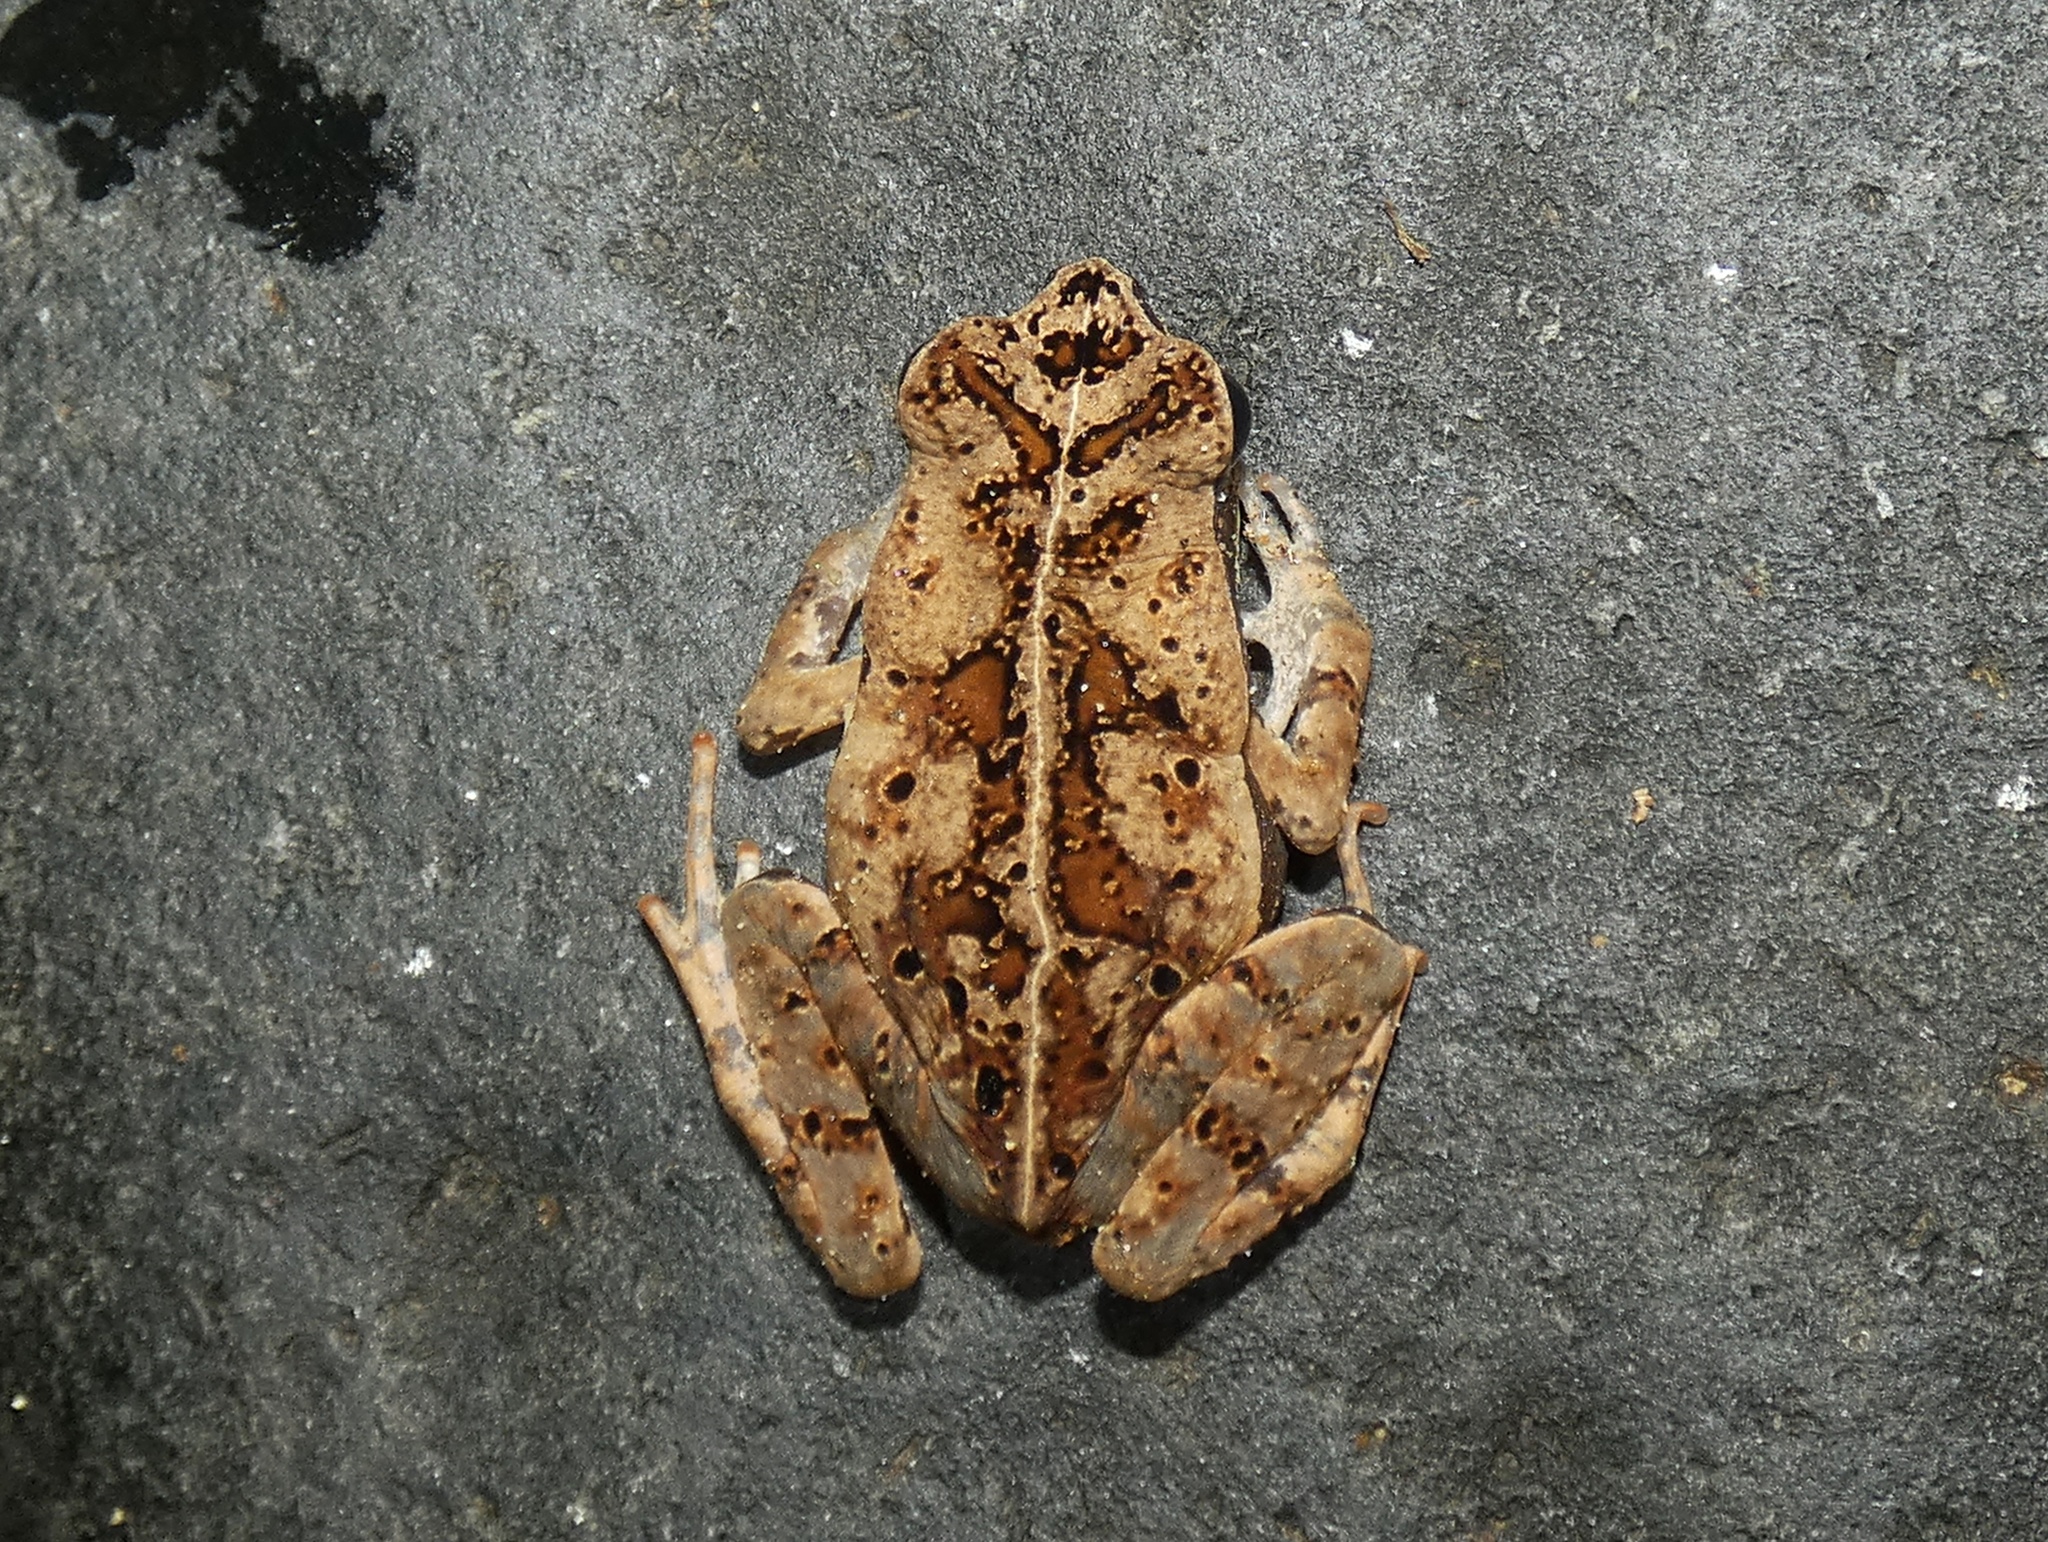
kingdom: Animalia
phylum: Chordata
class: Amphibia
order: Anura
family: Bufonidae
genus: Rhaebo
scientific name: Rhaebo haematiticus
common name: Truando toad
